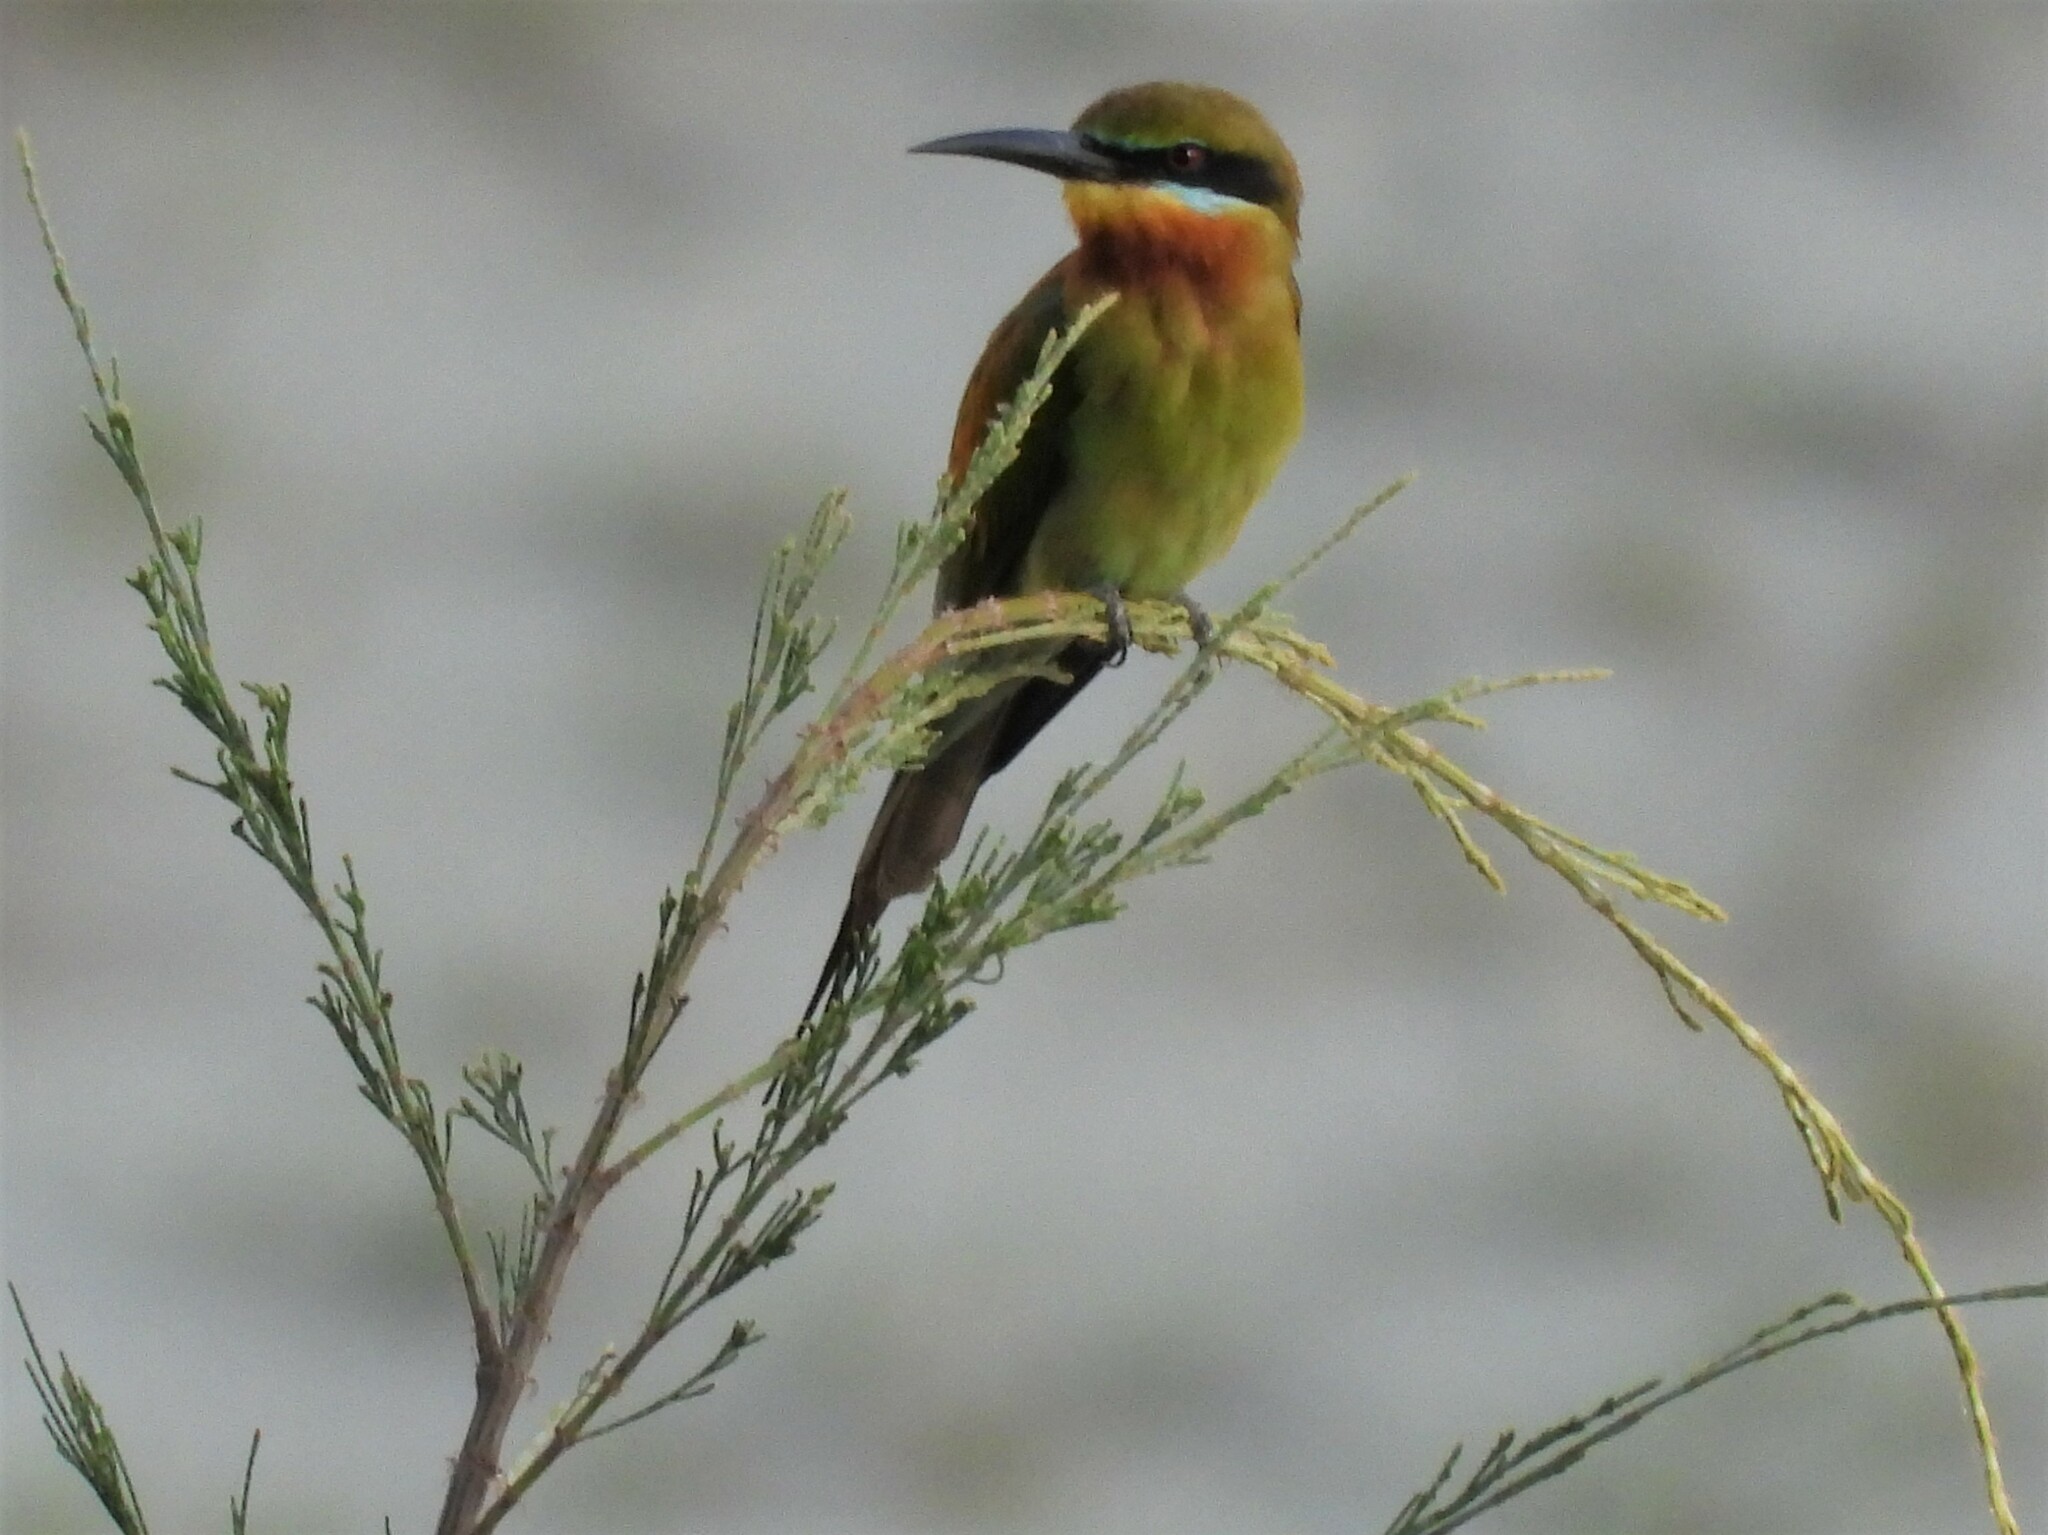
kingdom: Animalia
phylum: Chordata
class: Aves
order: Coraciiformes
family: Meropidae
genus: Merops
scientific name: Merops philippinus
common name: Blue-tailed bee-eater
